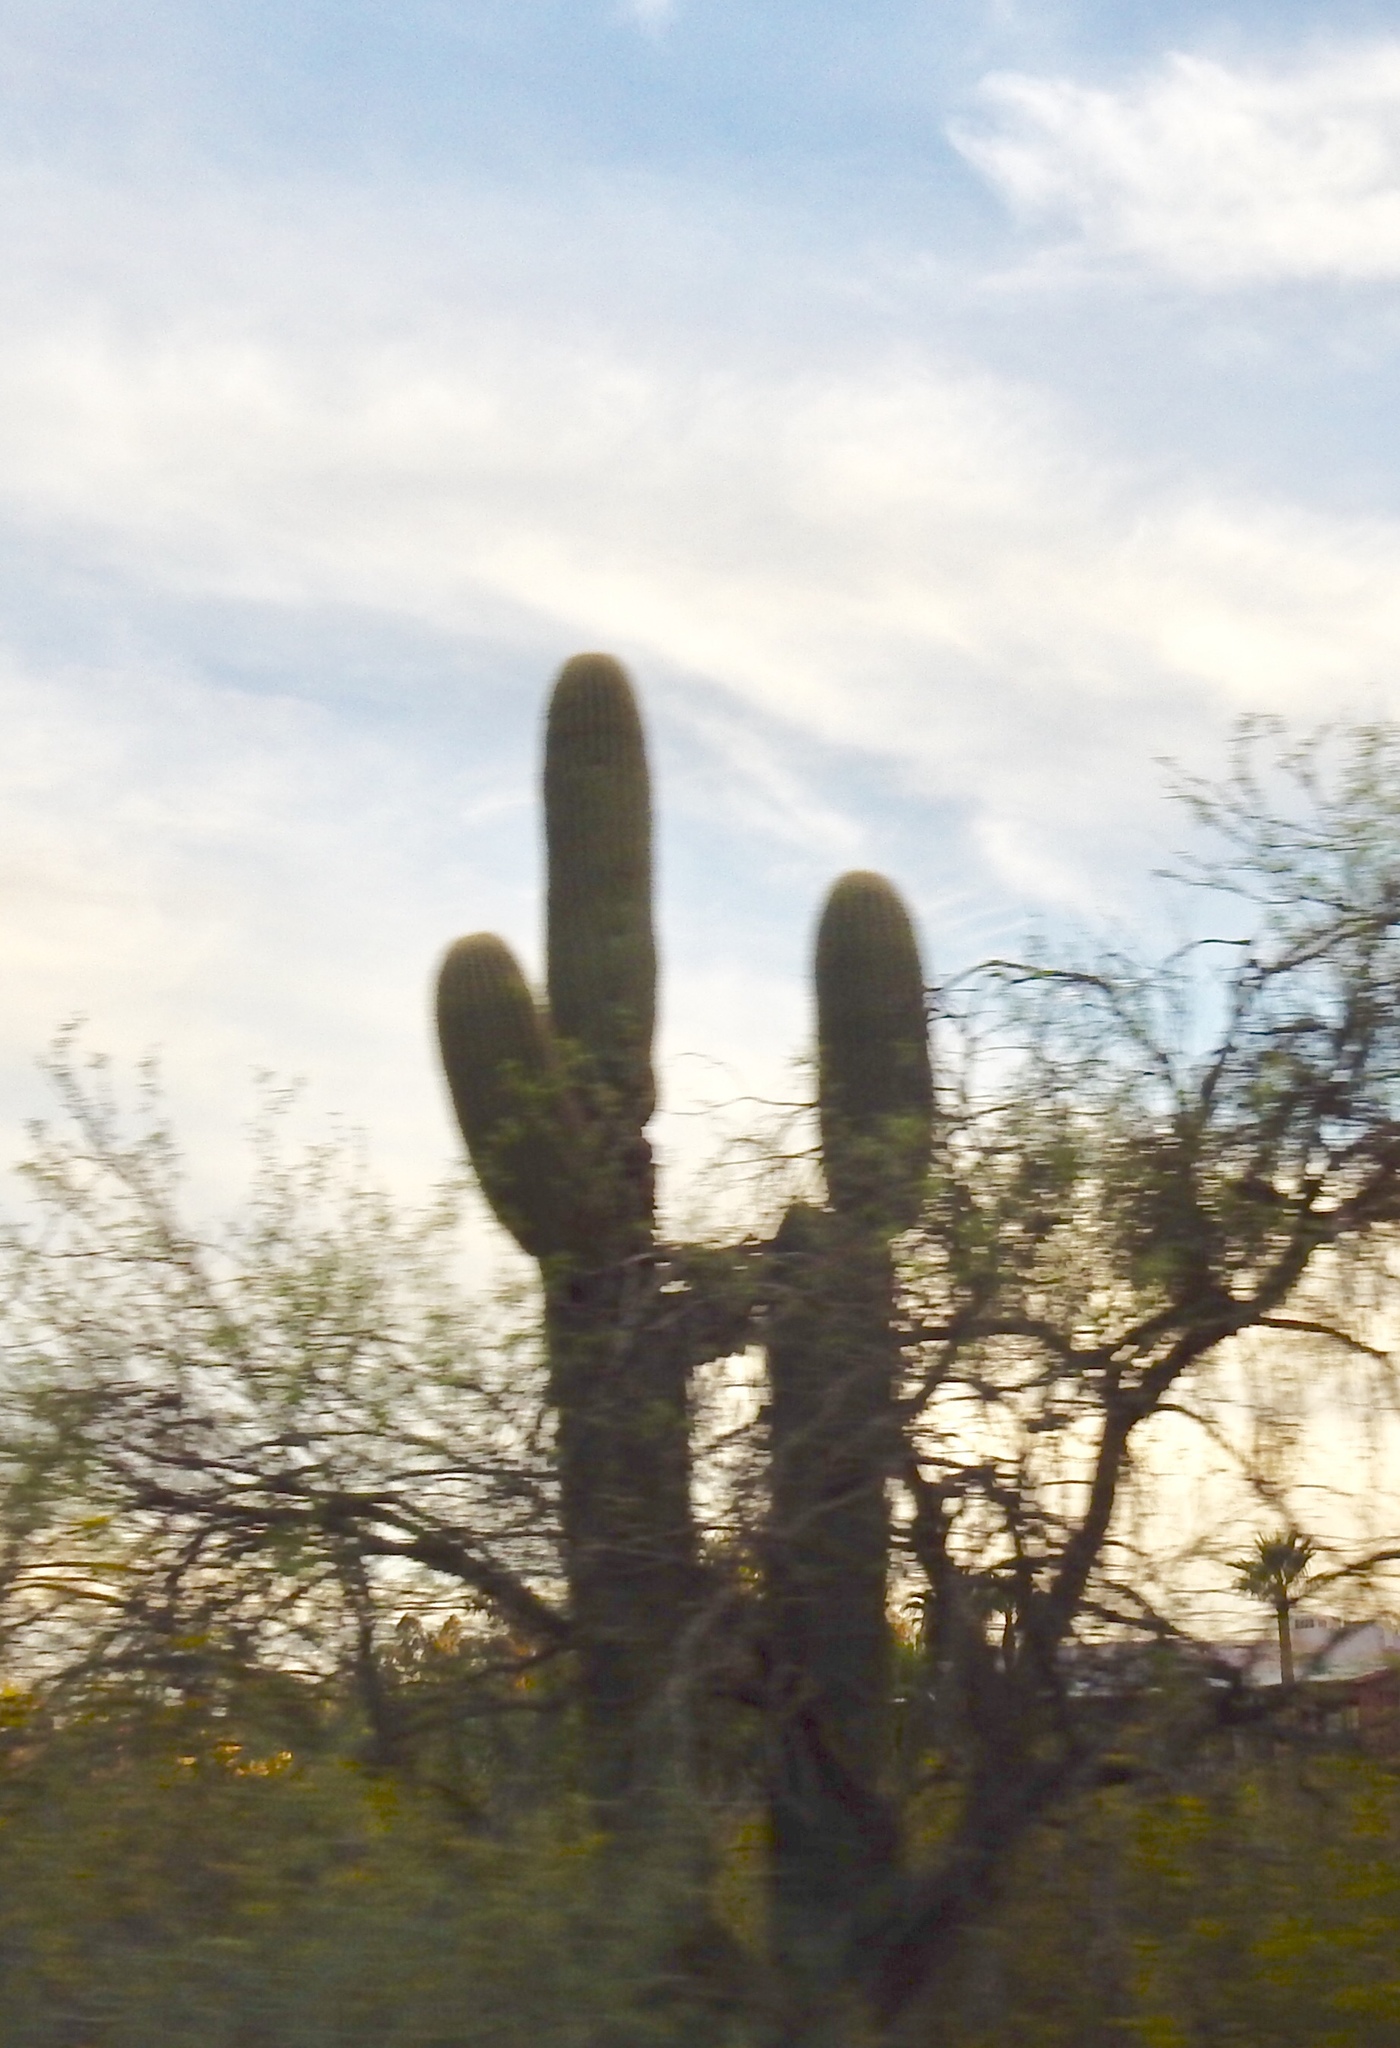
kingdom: Plantae
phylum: Tracheophyta
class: Magnoliopsida
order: Caryophyllales
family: Cactaceae
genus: Carnegiea
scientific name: Carnegiea gigantea
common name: Saguaro
